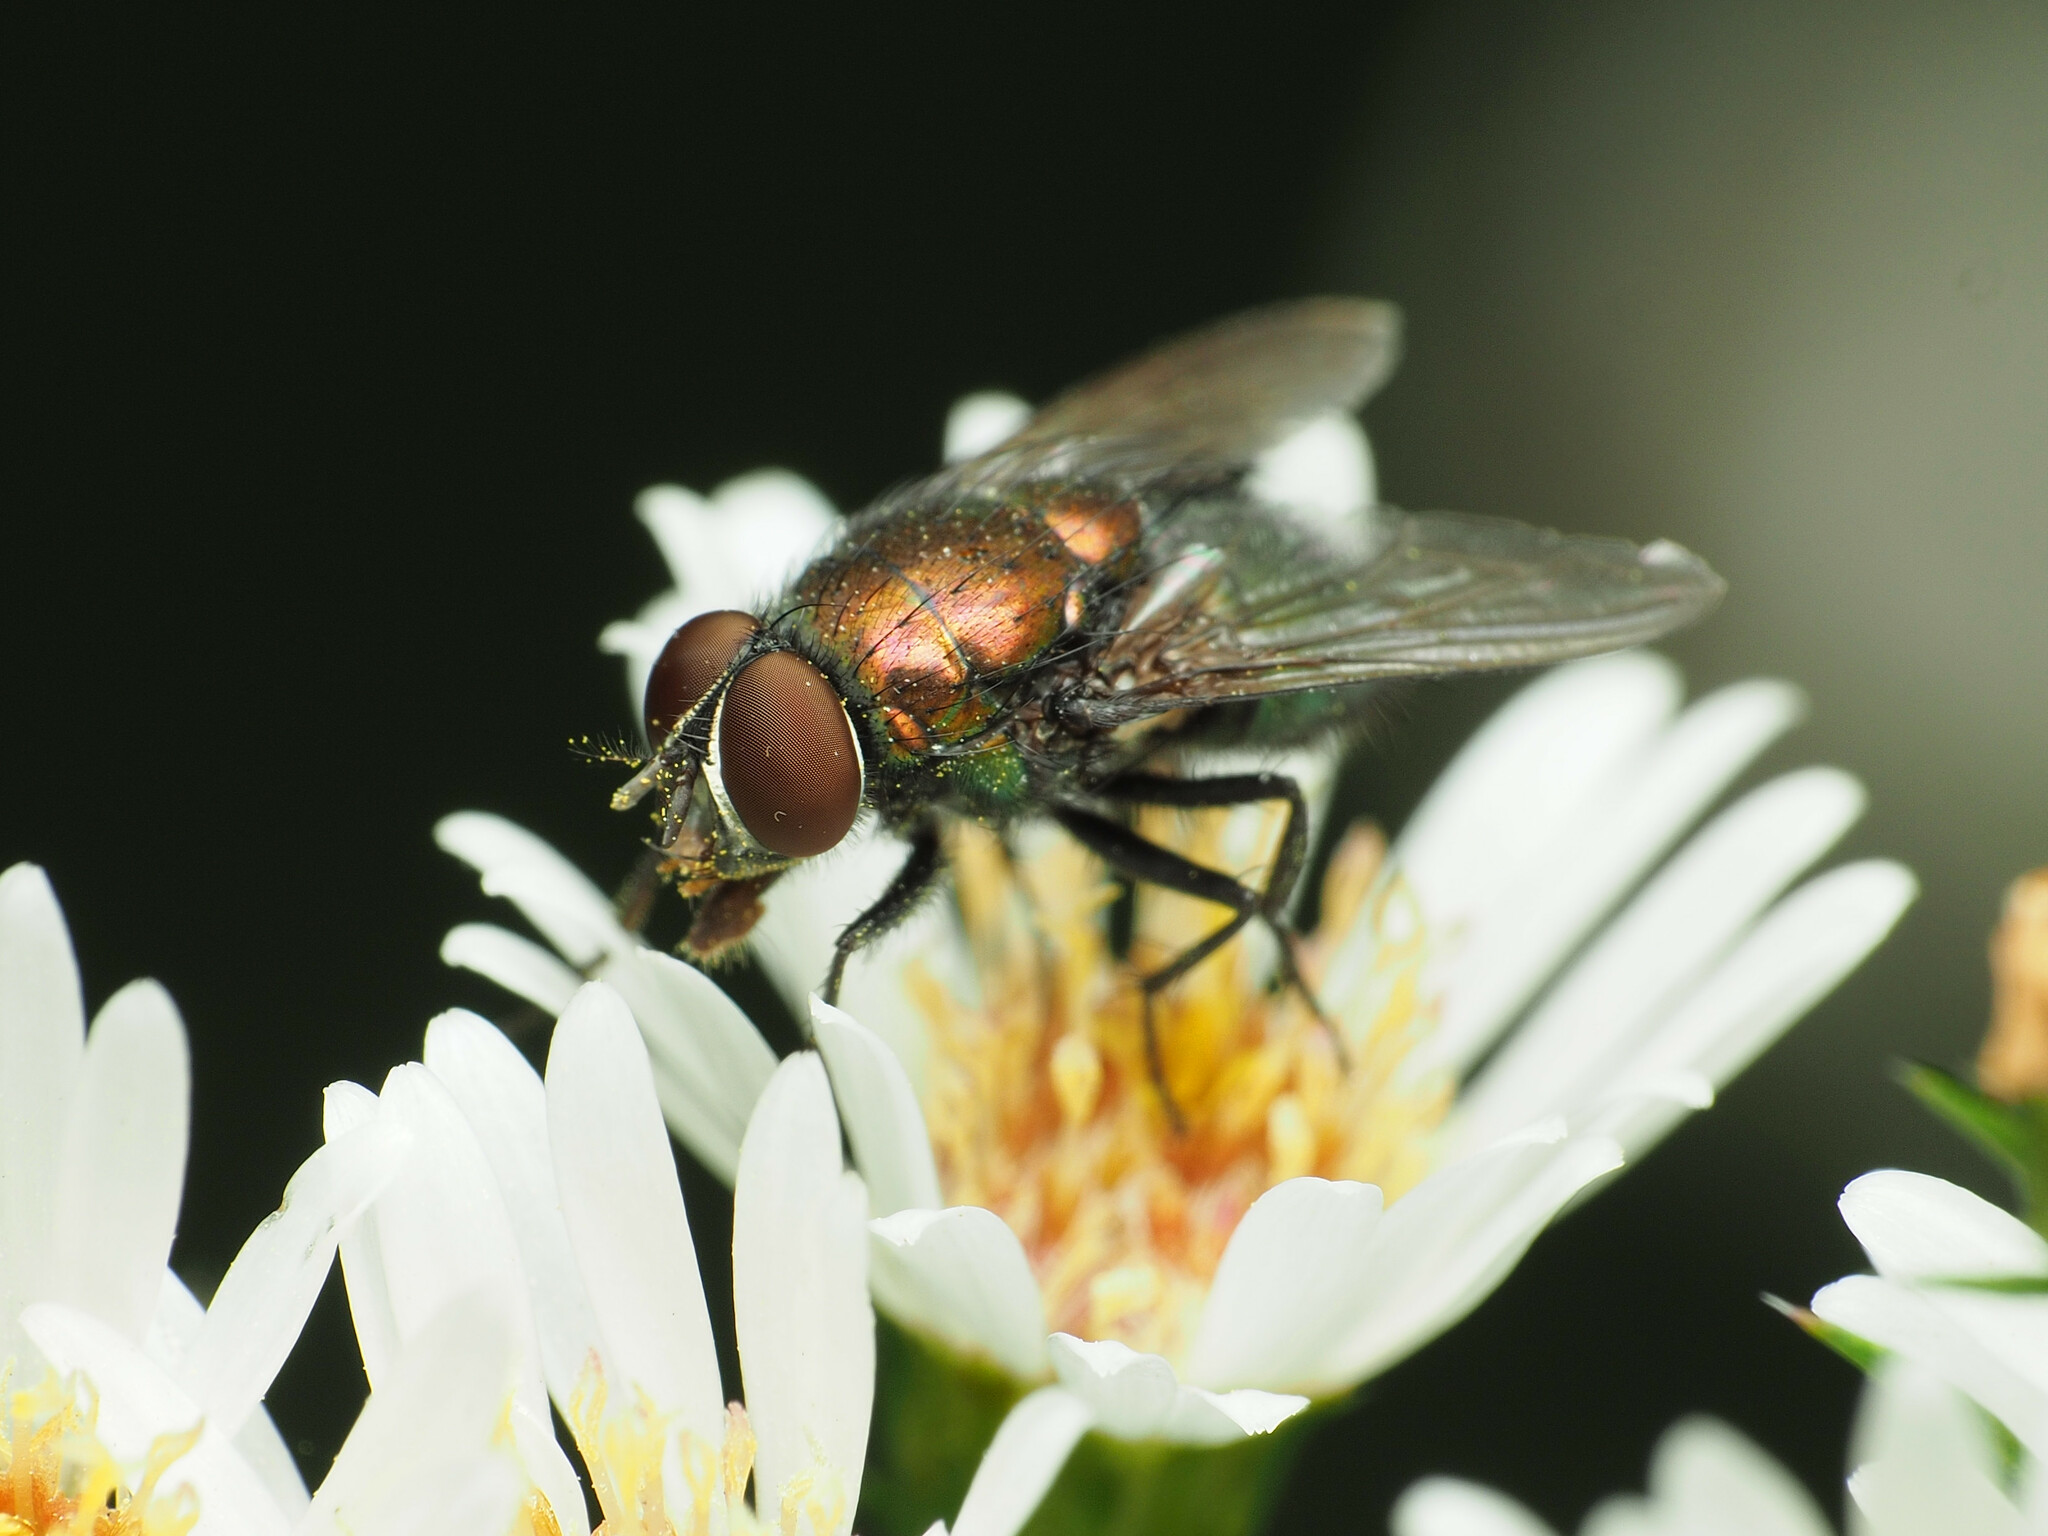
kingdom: Animalia
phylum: Arthropoda
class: Insecta
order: Diptera
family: Calliphoridae
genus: Lucilia
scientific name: Lucilia illustris
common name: Illustrious greenbottle
